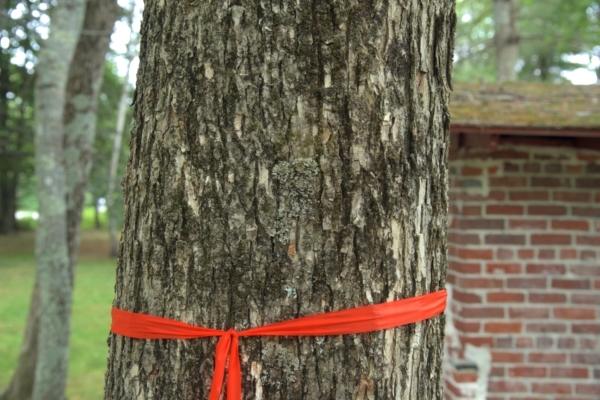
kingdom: Plantae
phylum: Tracheophyta
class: Magnoliopsida
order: Rosales
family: Ulmaceae
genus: Ulmus
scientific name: Ulmus americana
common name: American elm
